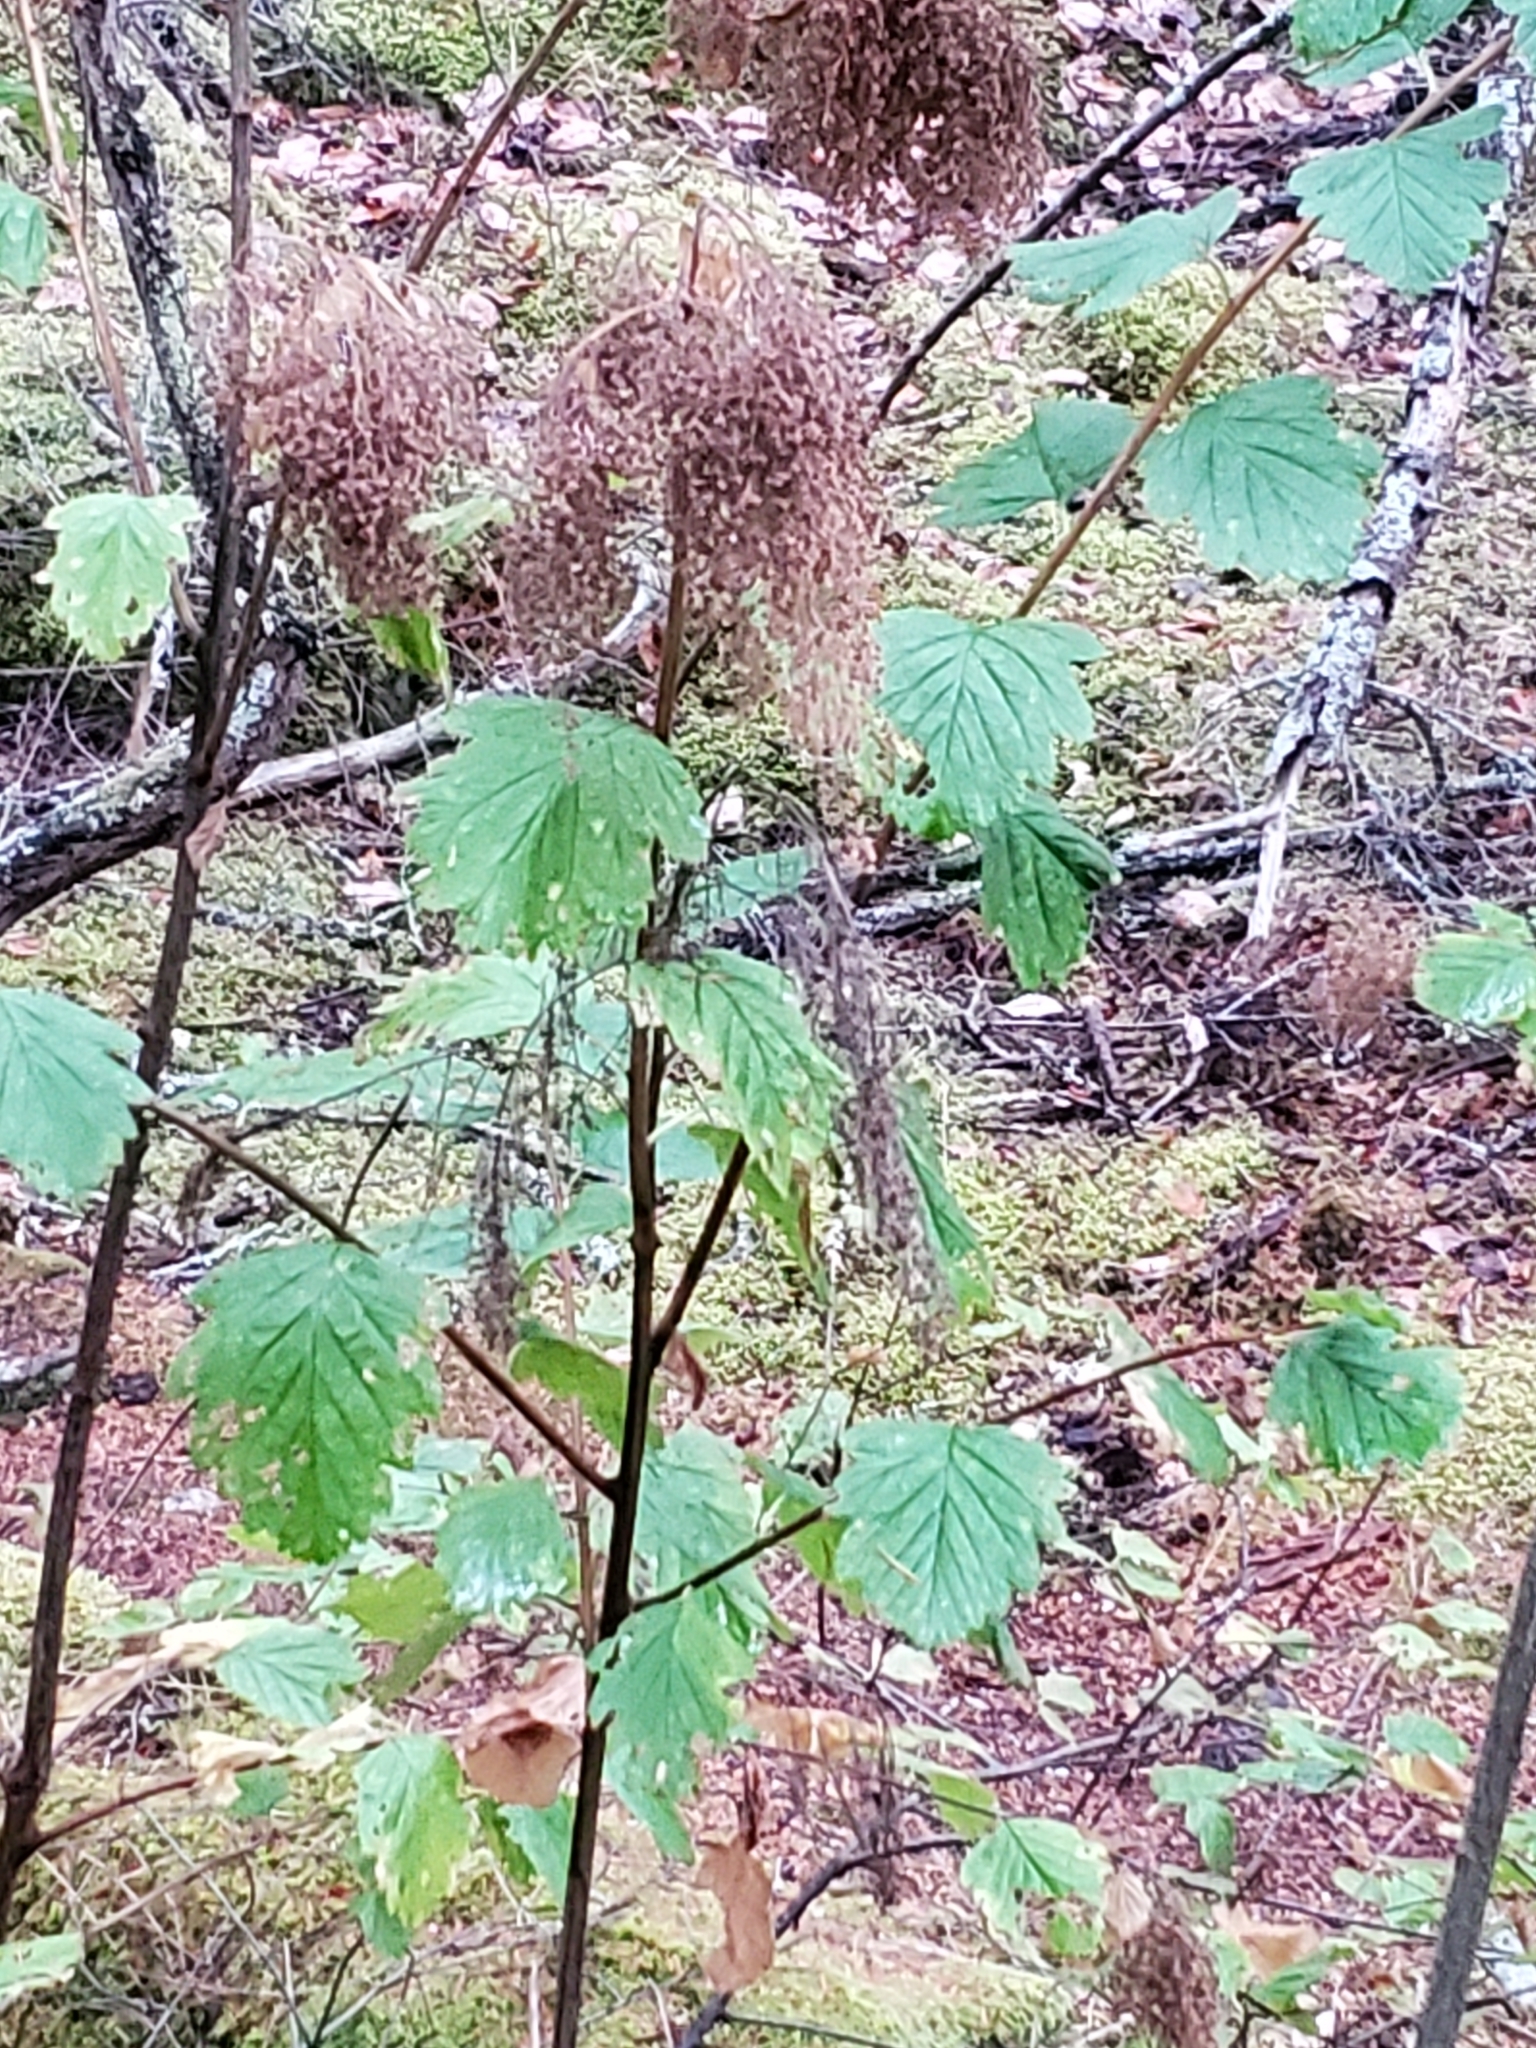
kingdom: Plantae
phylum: Tracheophyta
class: Magnoliopsida
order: Rosales
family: Rosaceae
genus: Holodiscus
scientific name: Holodiscus discolor
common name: Oceanspray
